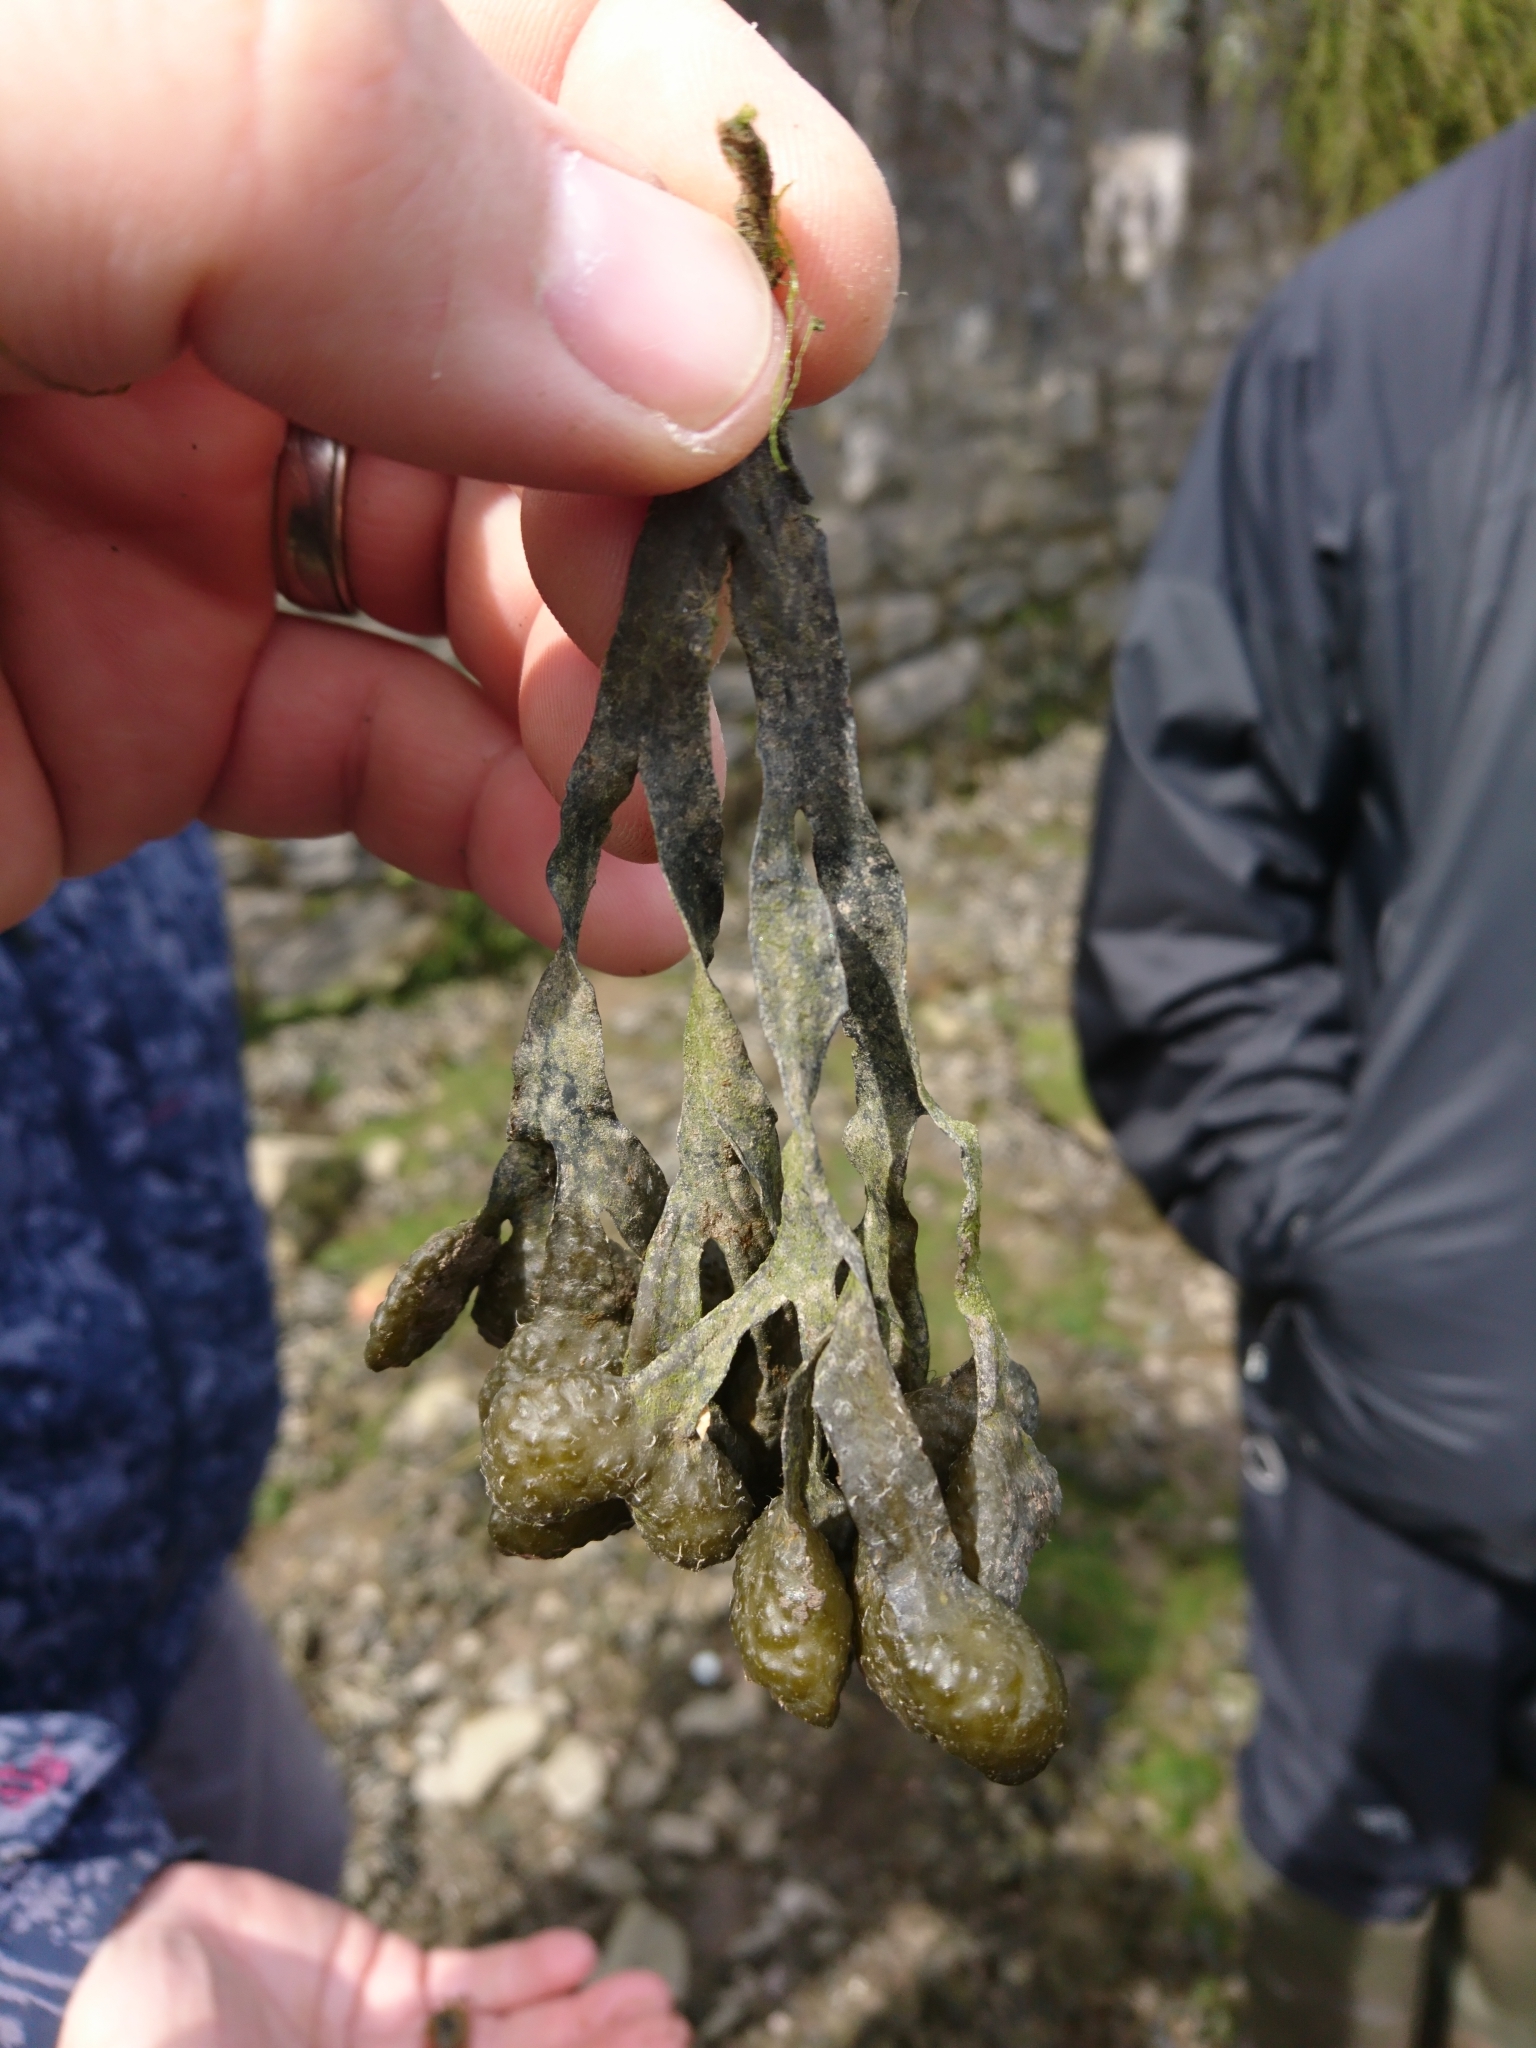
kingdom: Chromista
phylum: Ochrophyta
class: Phaeophyceae
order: Fucales
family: Fucaceae
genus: Fucus
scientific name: Fucus spiralis
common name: Spiral wrack
